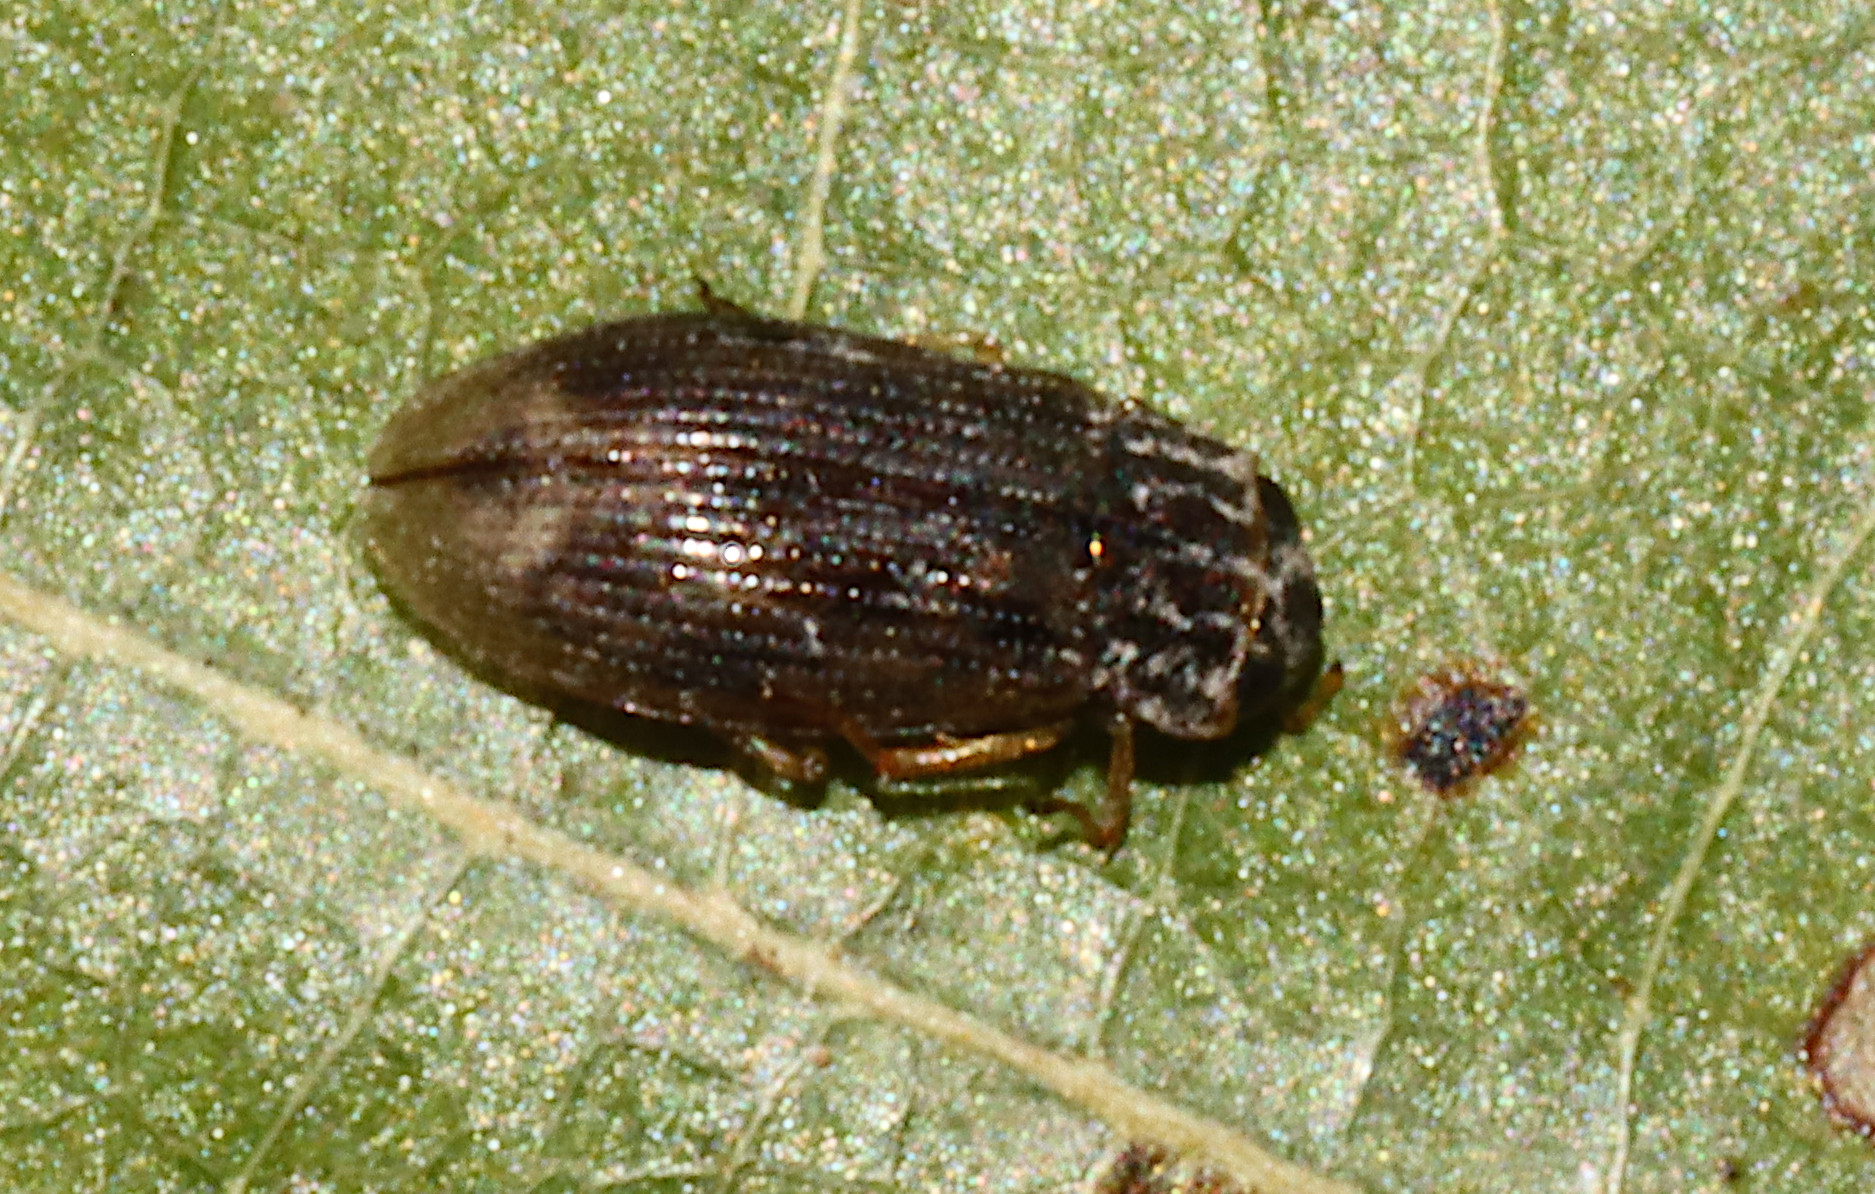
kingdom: Animalia
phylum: Arthropoda
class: Insecta
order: Coleoptera
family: Helophoridae
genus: Helophorus
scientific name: Helophorus
